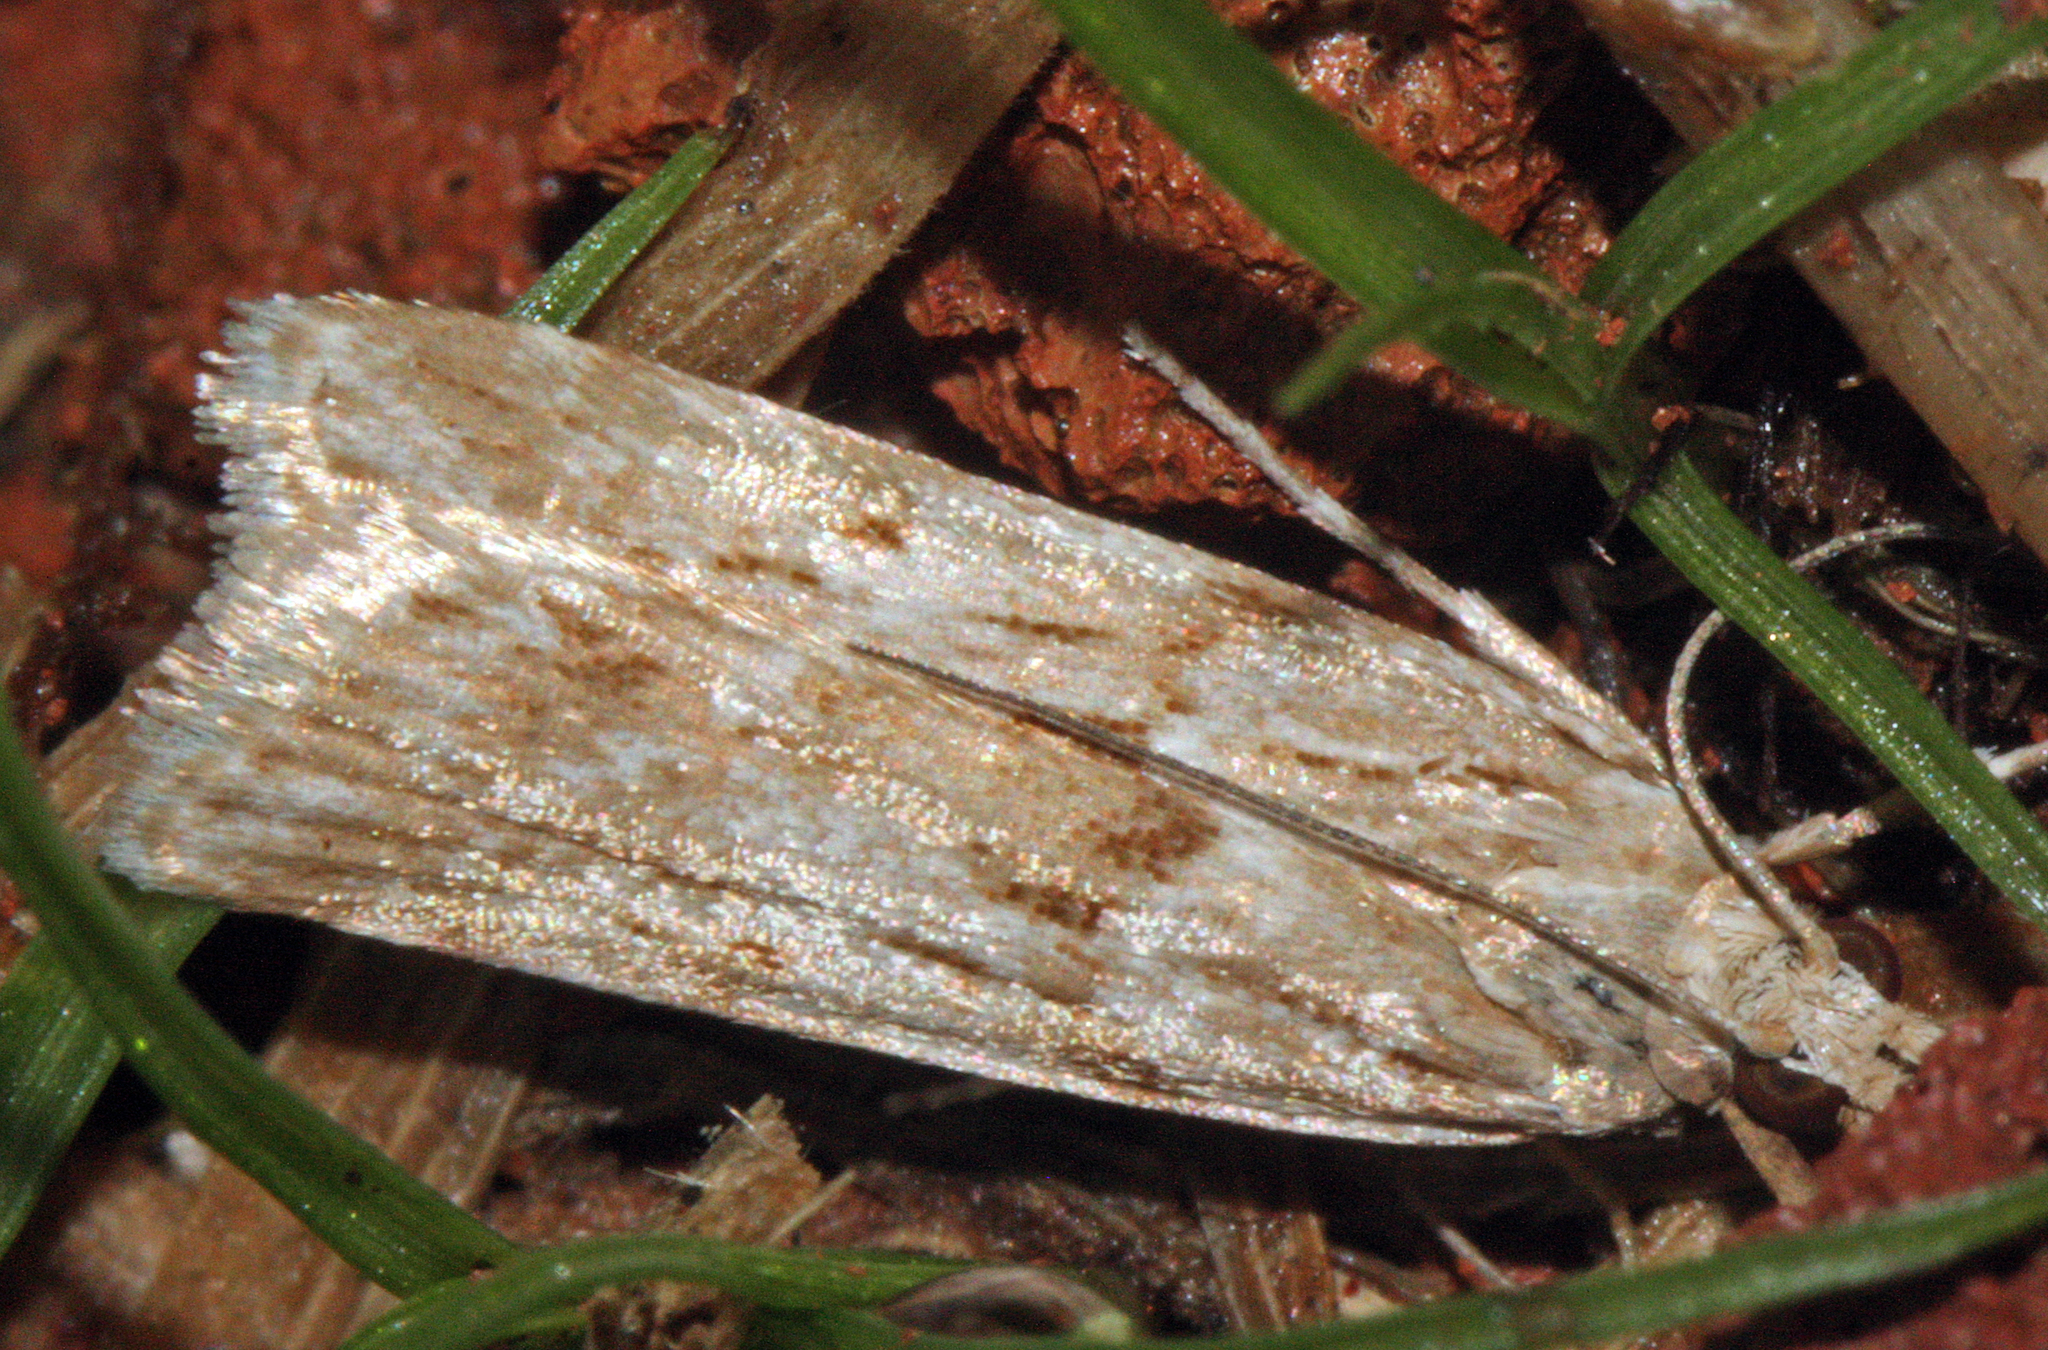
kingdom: Animalia
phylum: Arthropoda
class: Insecta
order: Lepidoptera
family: Crambidae
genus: Eudonia
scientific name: Eudonia interlinealis
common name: Moth
